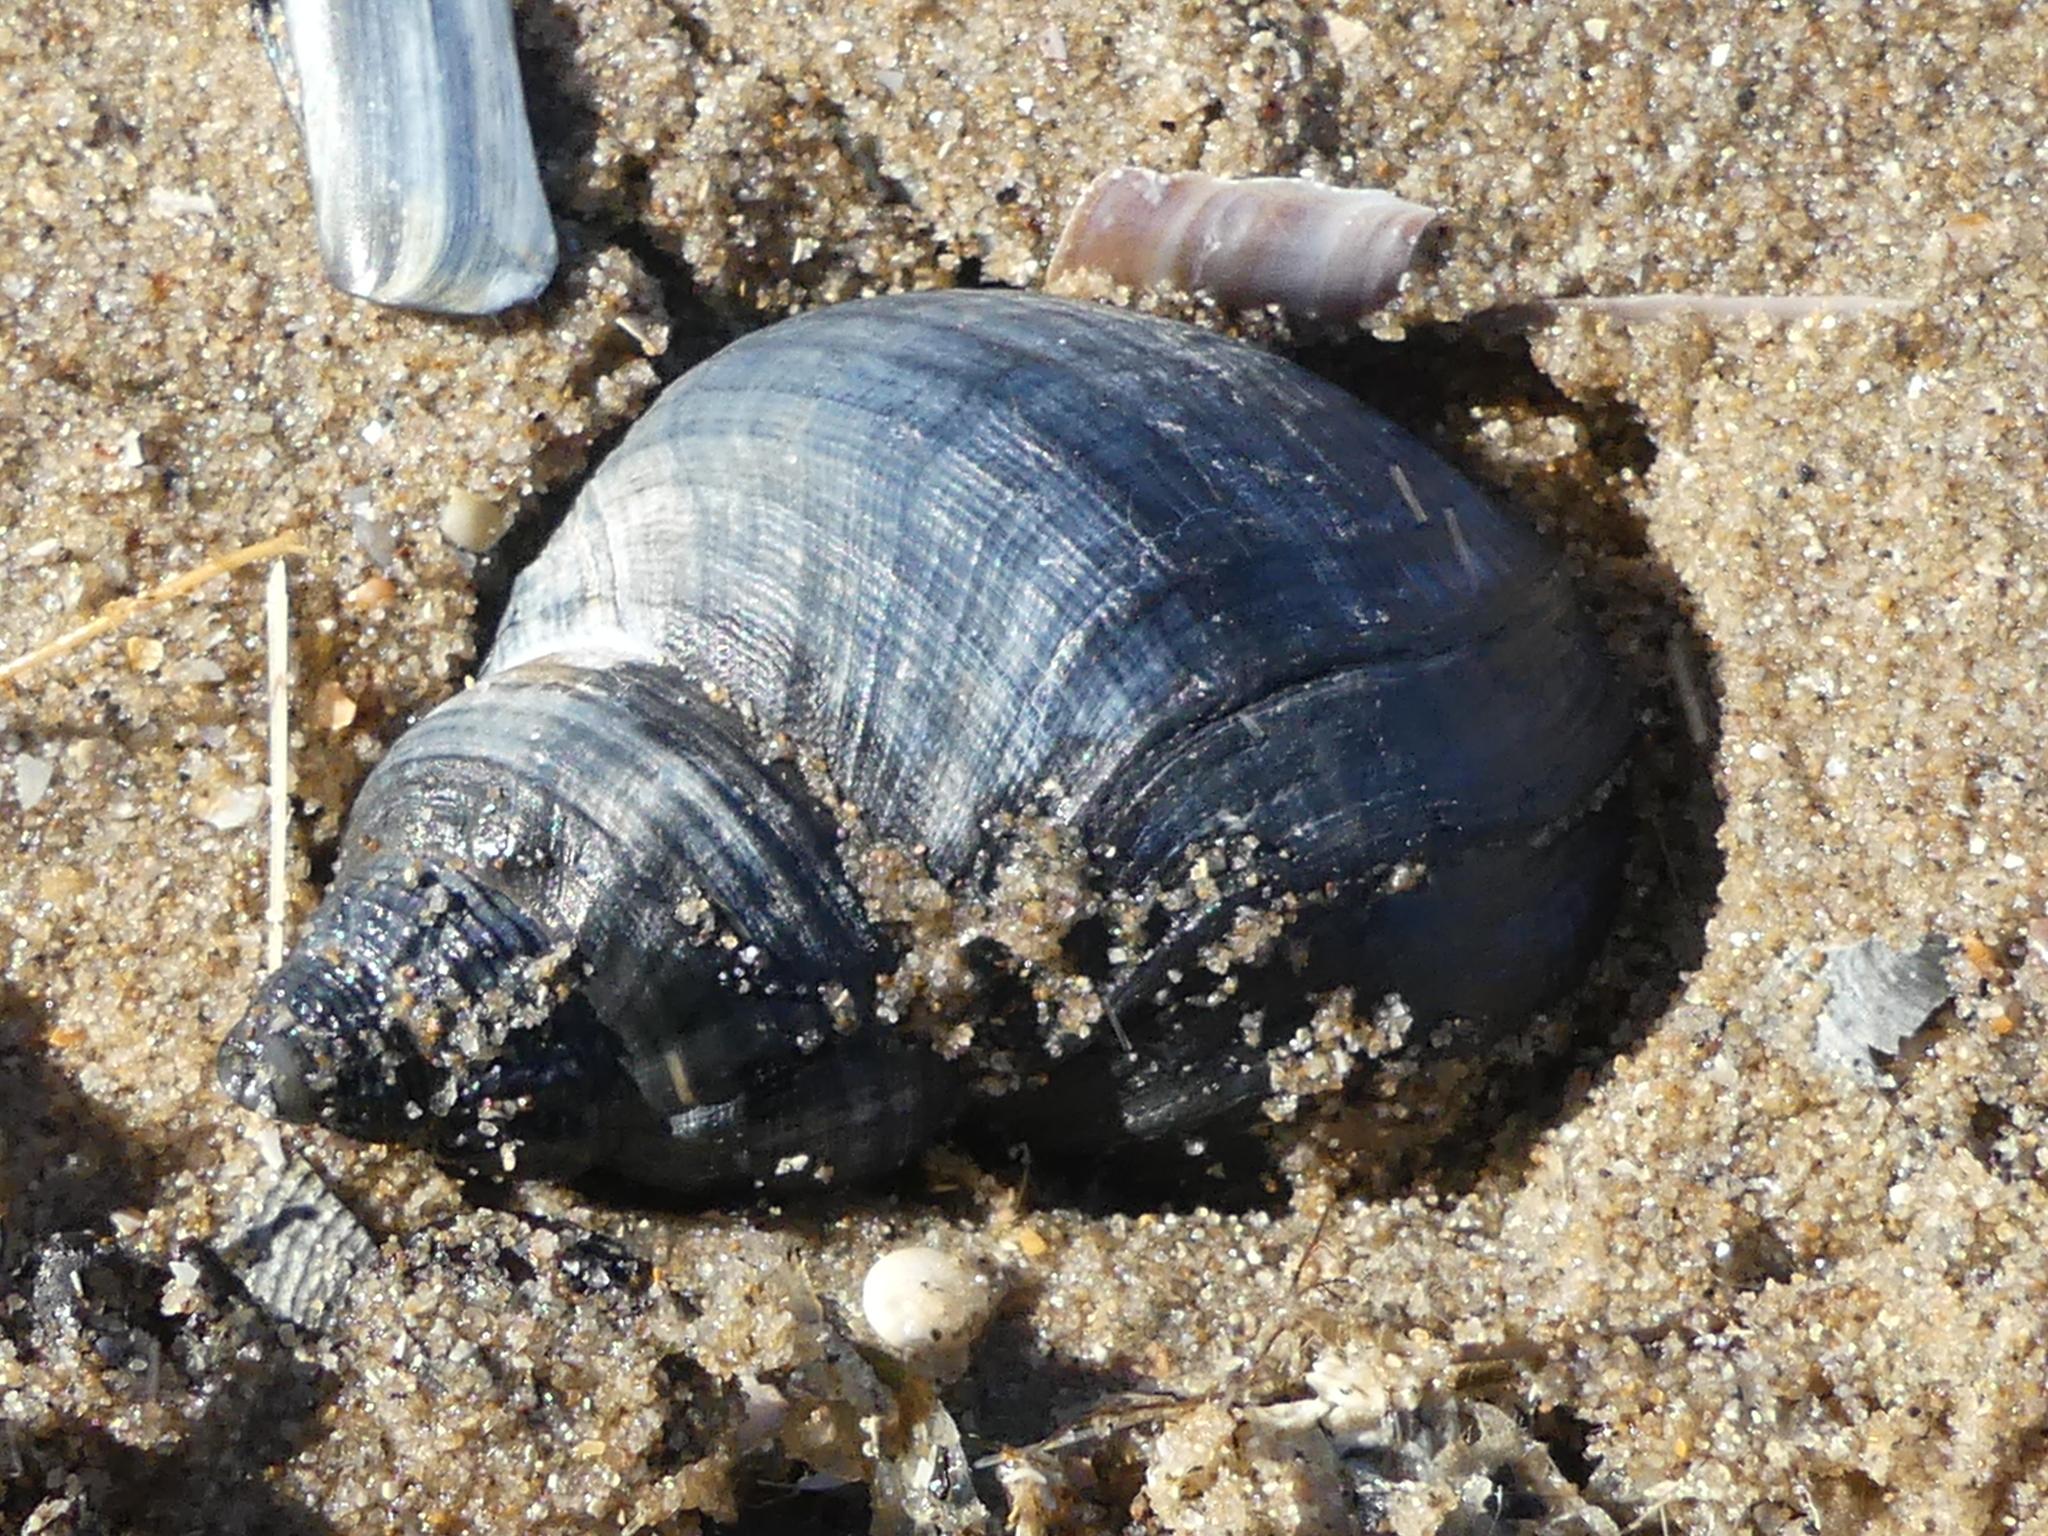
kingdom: Animalia
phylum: Mollusca
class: Gastropoda
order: Neogastropoda
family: Buccinidae
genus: Buccinum
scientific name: Buccinum undatum
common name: Common whelk
